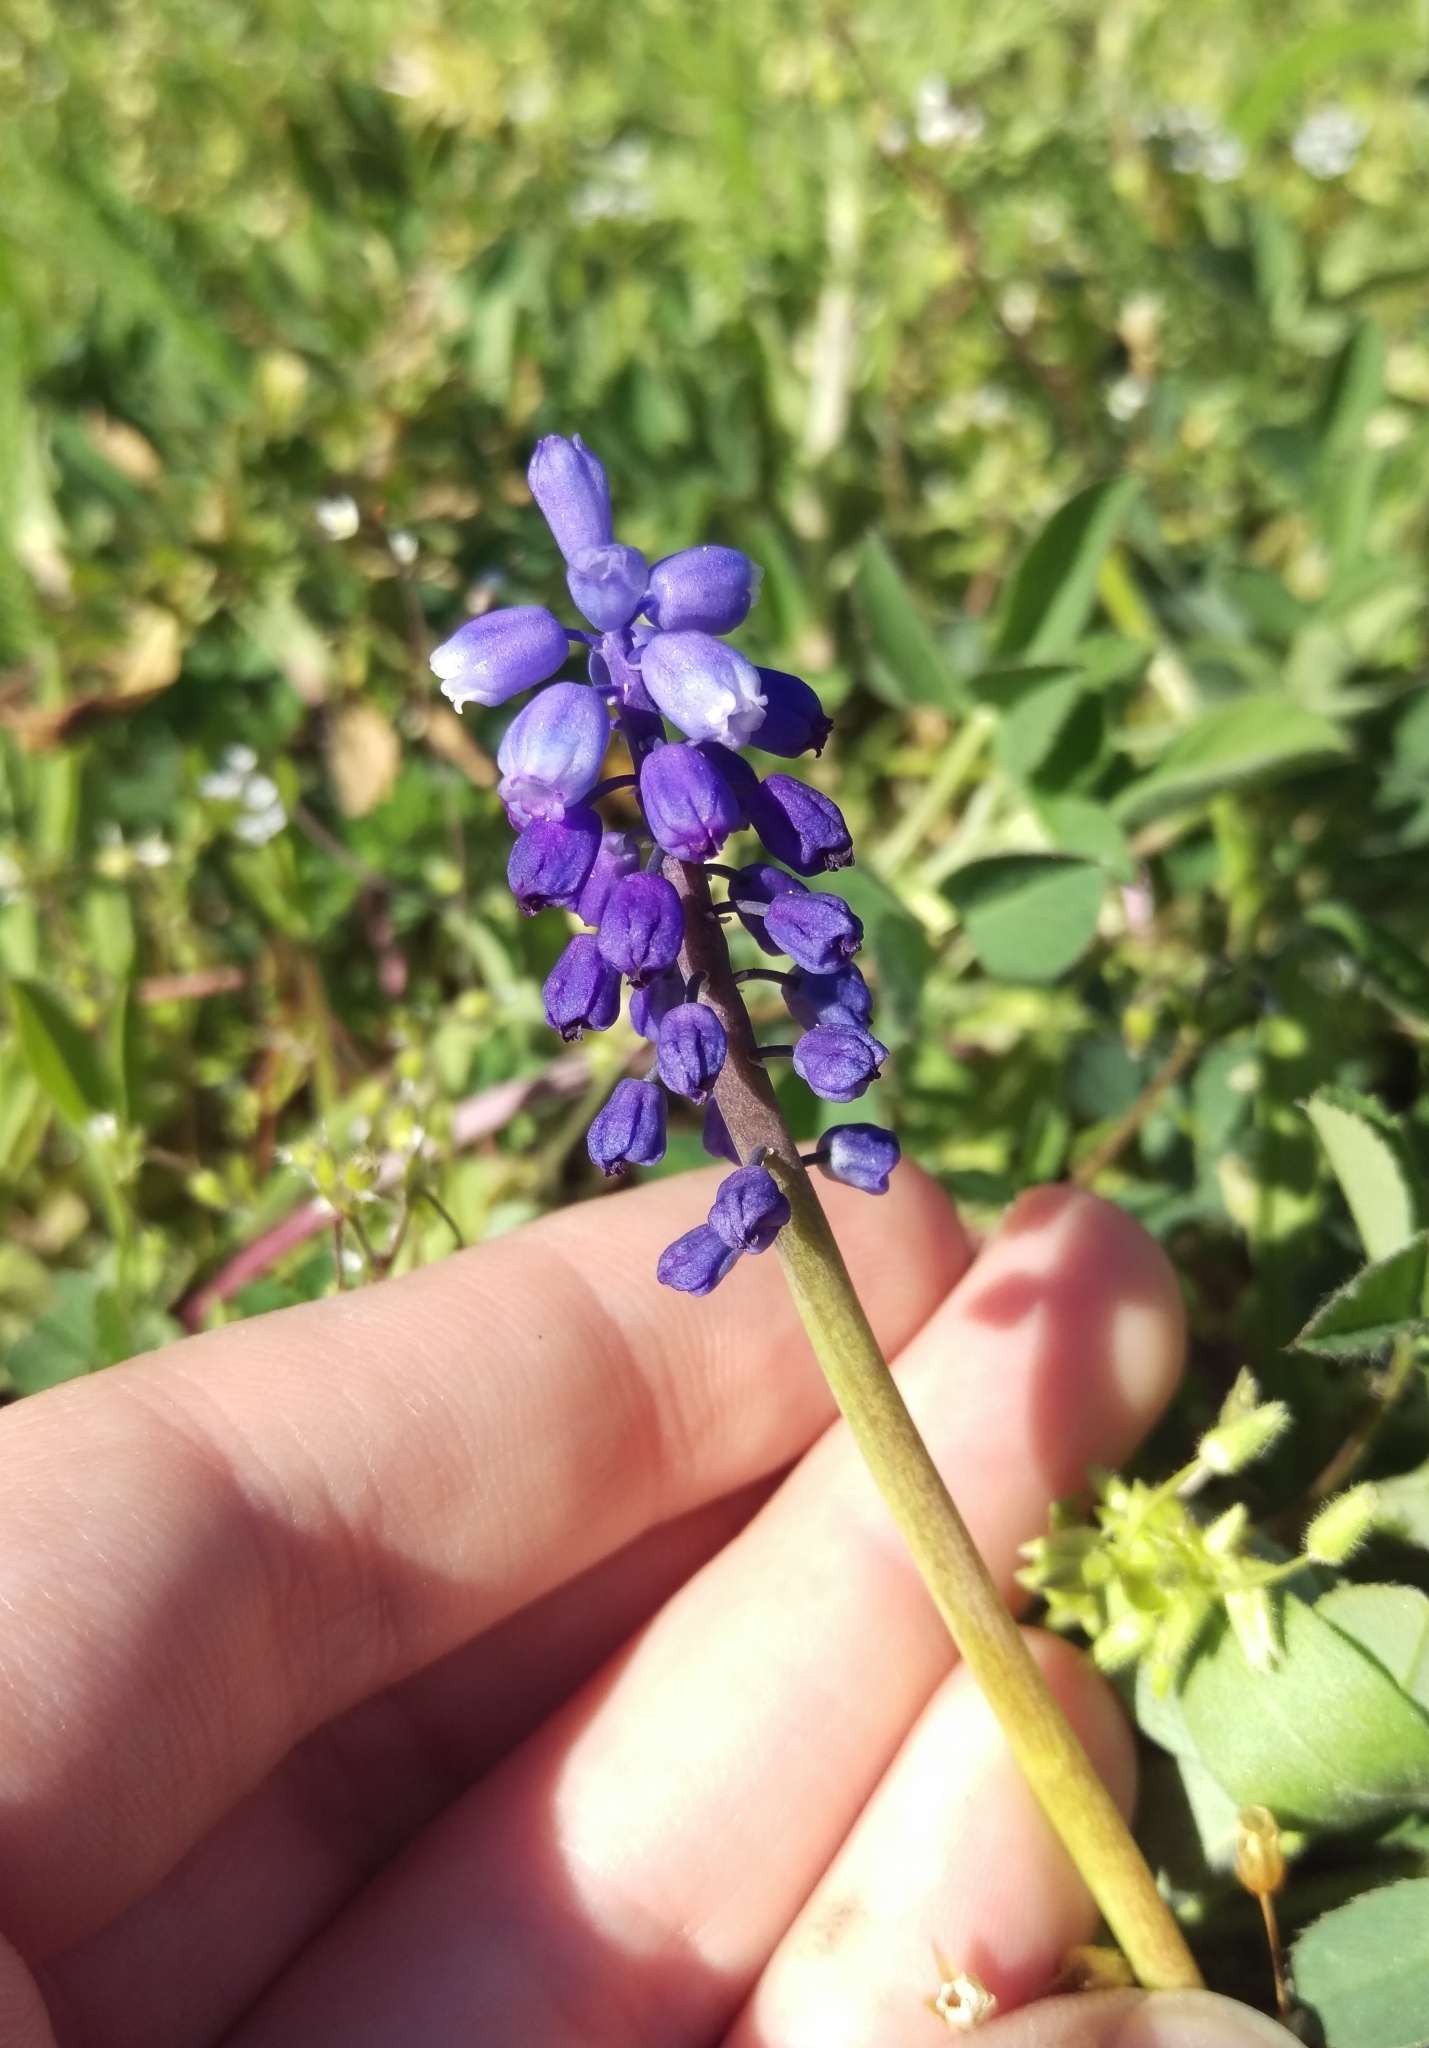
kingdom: Plantae
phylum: Tracheophyta
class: Liliopsida
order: Asparagales
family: Asparagaceae
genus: Muscari
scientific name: Muscari neglectum
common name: Grape-hyacinth
